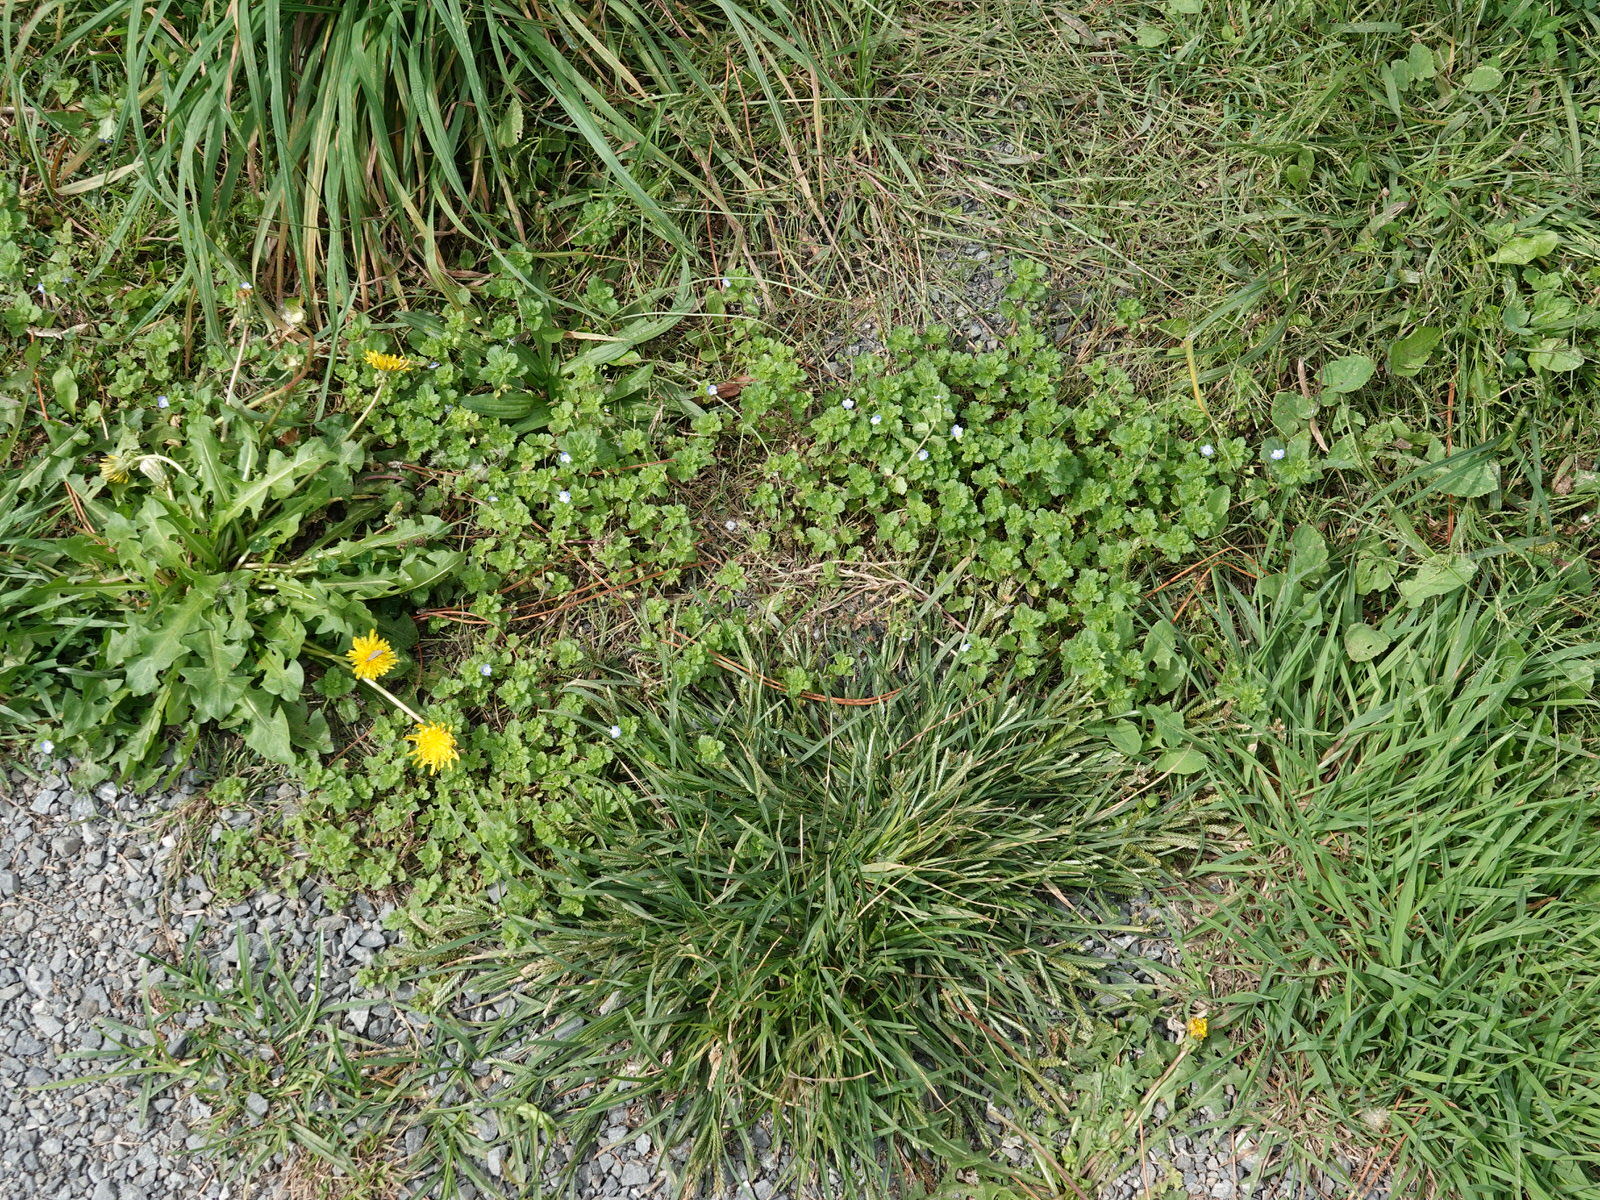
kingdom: Plantae
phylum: Tracheophyta
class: Magnoliopsida
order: Lamiales
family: Plantaginaceae
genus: Veronica
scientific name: Veronica persica
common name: Common field-speedwell
